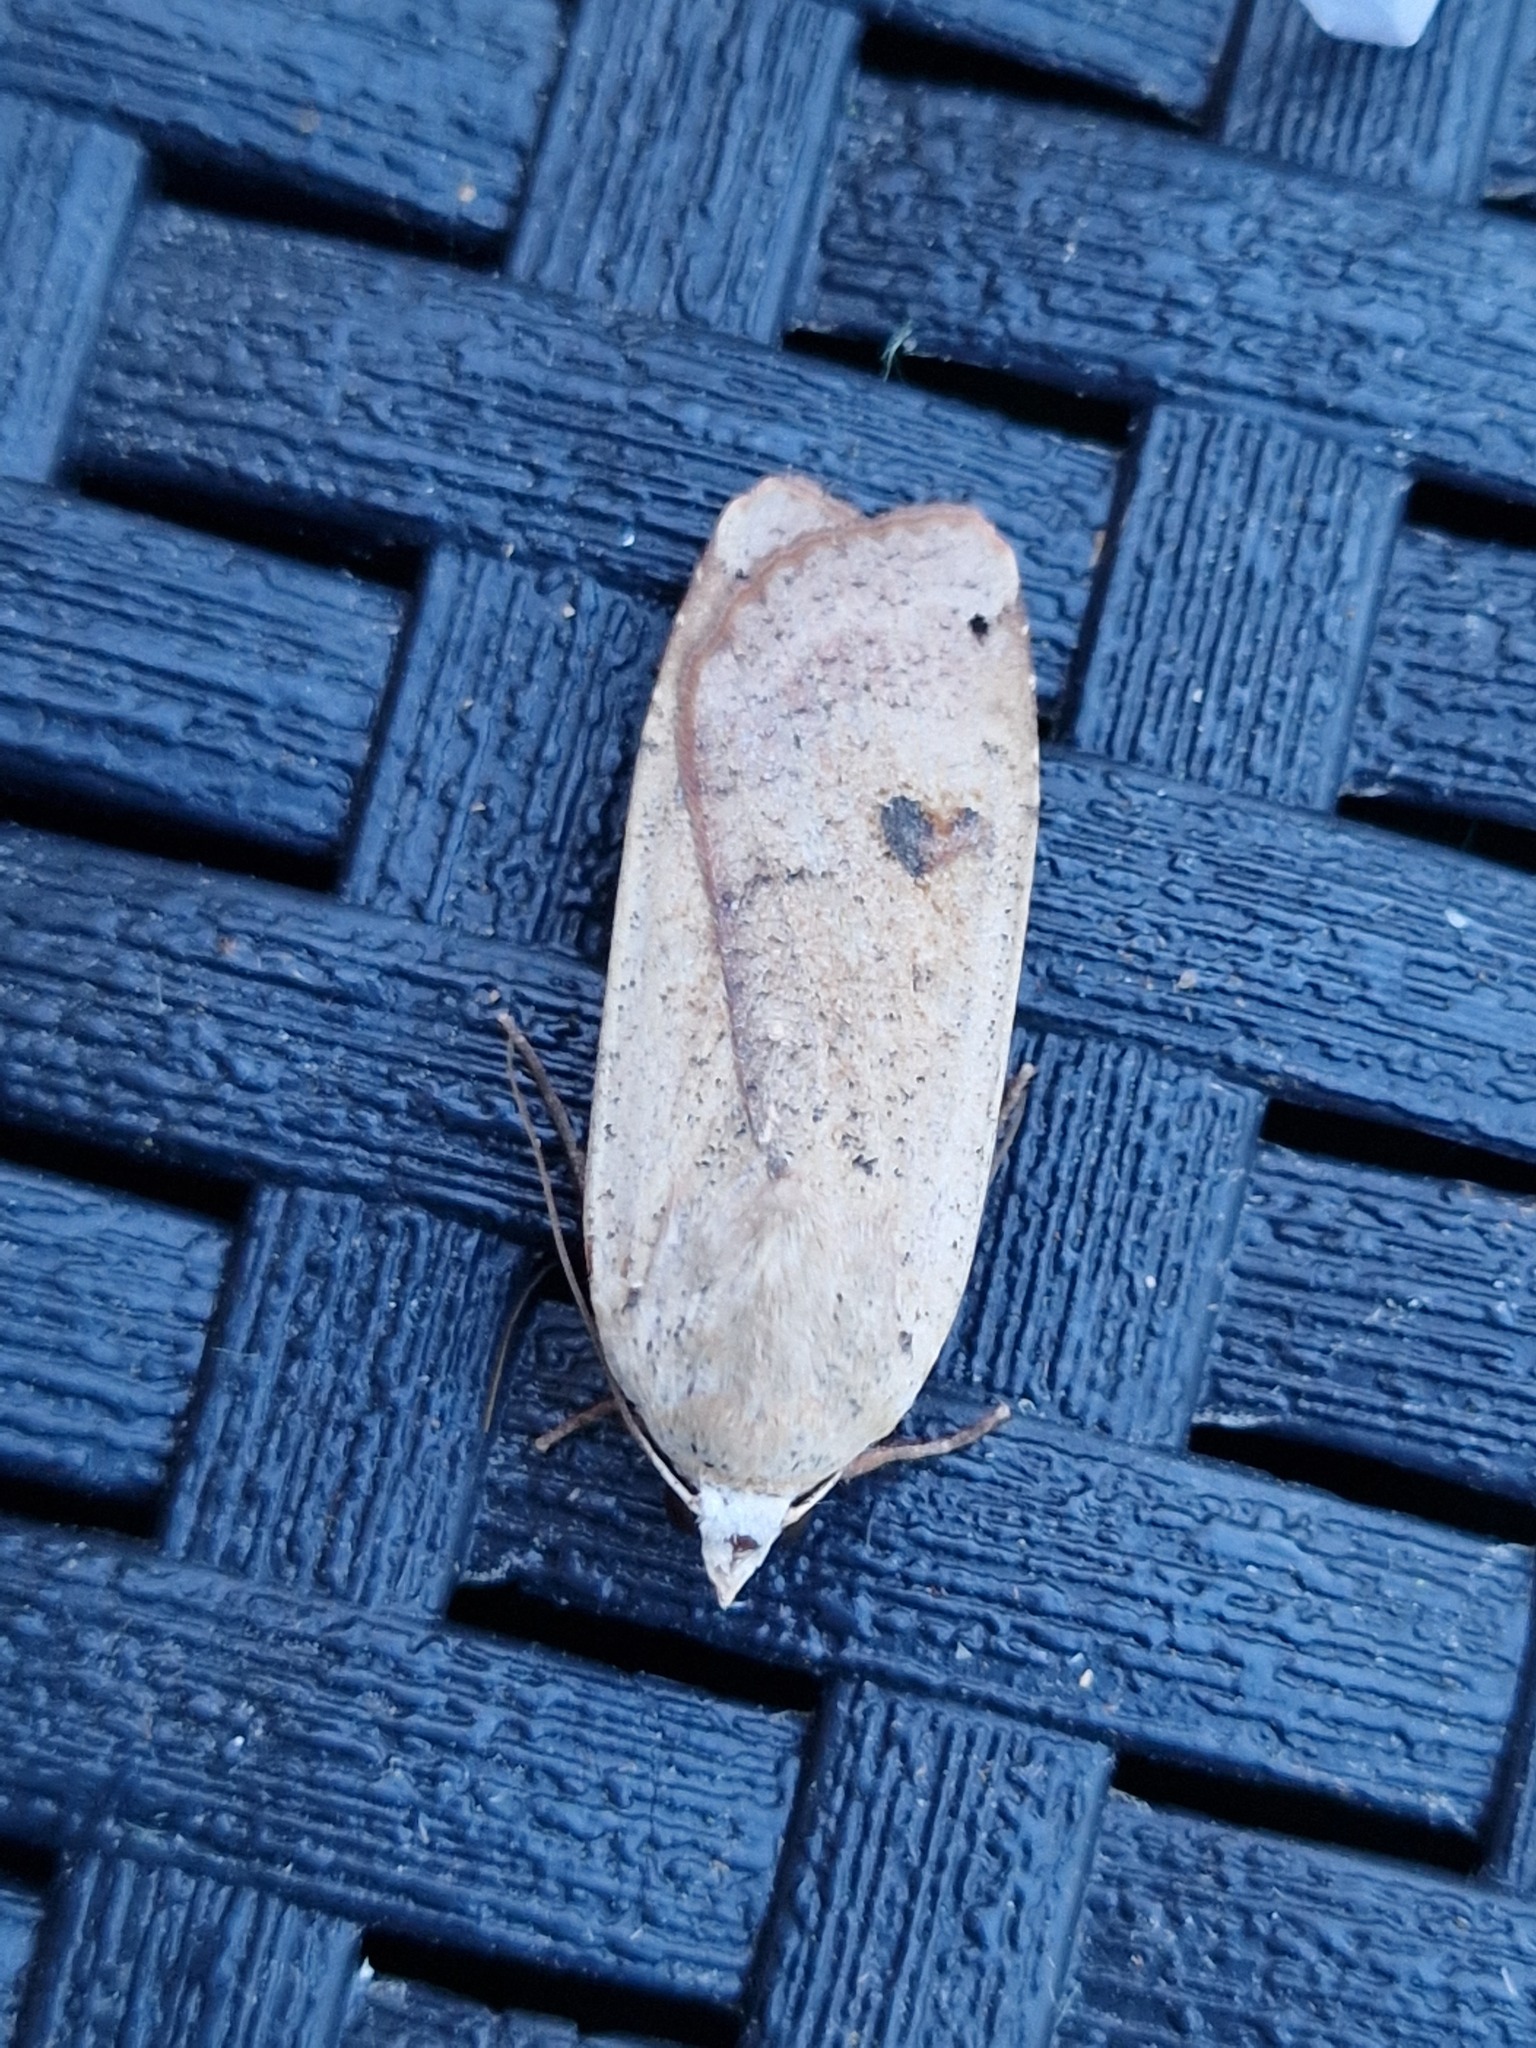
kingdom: Animalia
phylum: Arthropoda
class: Insecta
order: Lepidoptera
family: Noctuidae
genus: Noctua
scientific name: Noctua pronuba
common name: Large yellow underwing
